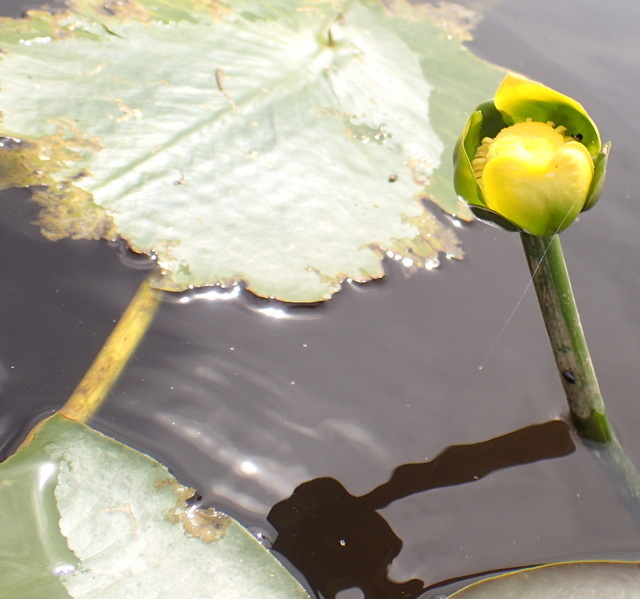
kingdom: Plantae
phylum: Tracheophyta
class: Magnoliopsida
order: Nymphaeales
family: Nymphaeaceae
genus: Nuphar
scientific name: Nuphar advena
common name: Spatter-dock
